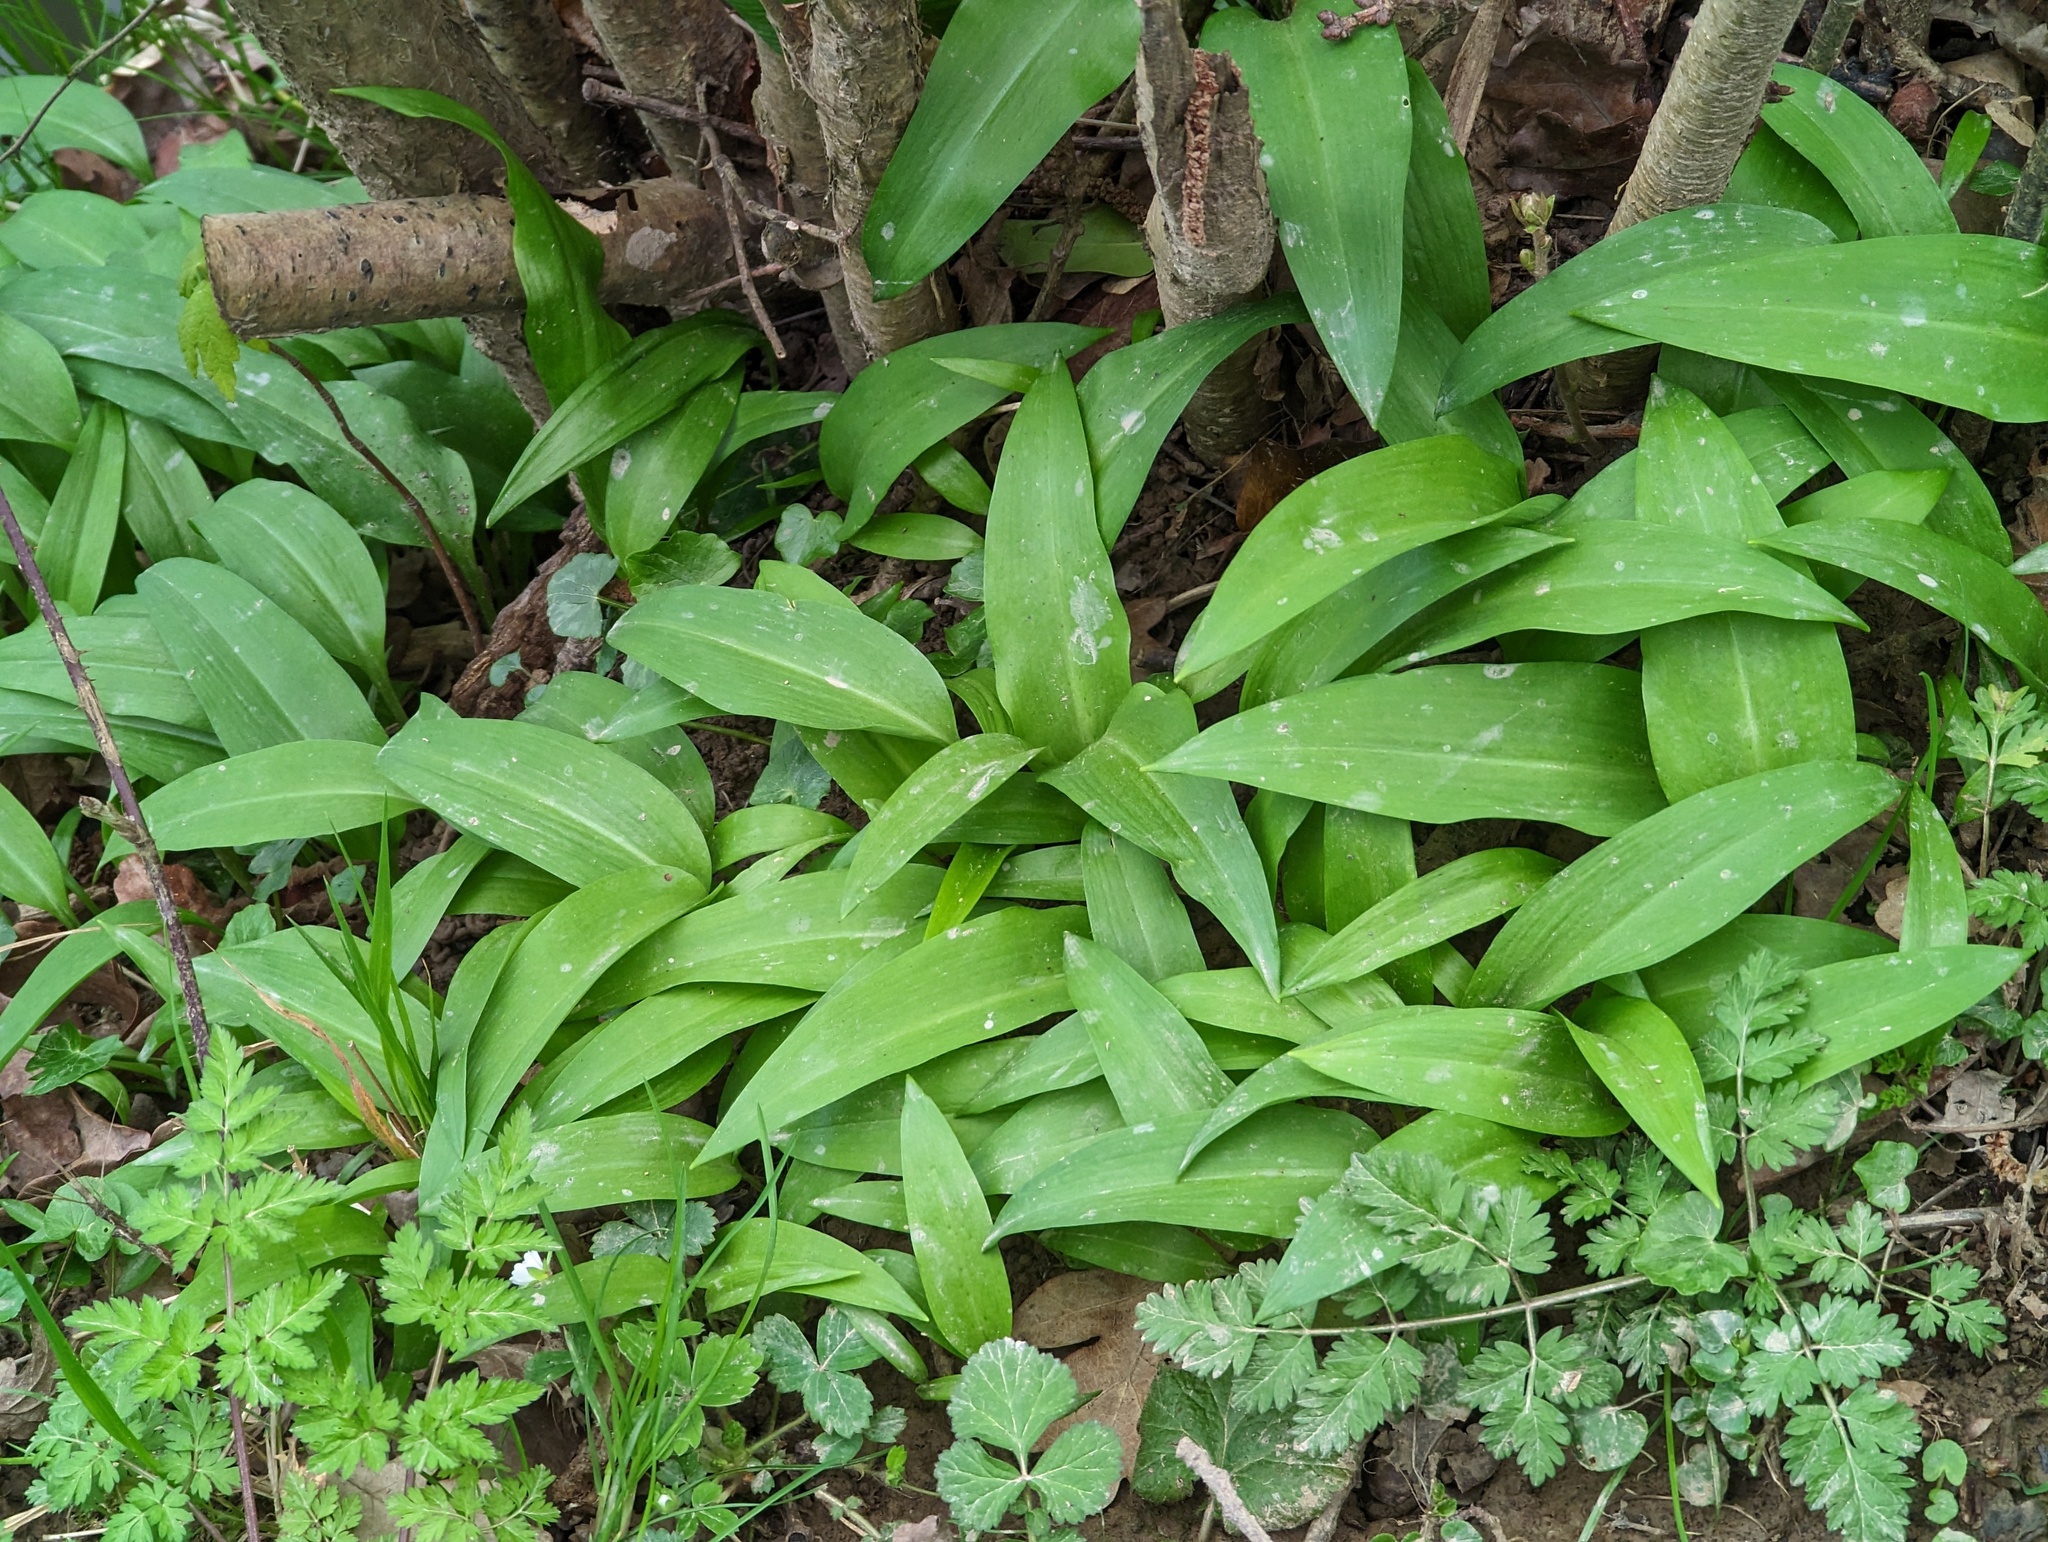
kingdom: Plantae
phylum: Tracheophyta
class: Liliopsida
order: Asparagales
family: Amaryllidaceae
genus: Allium
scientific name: Allium ursinum
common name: Ramsons
